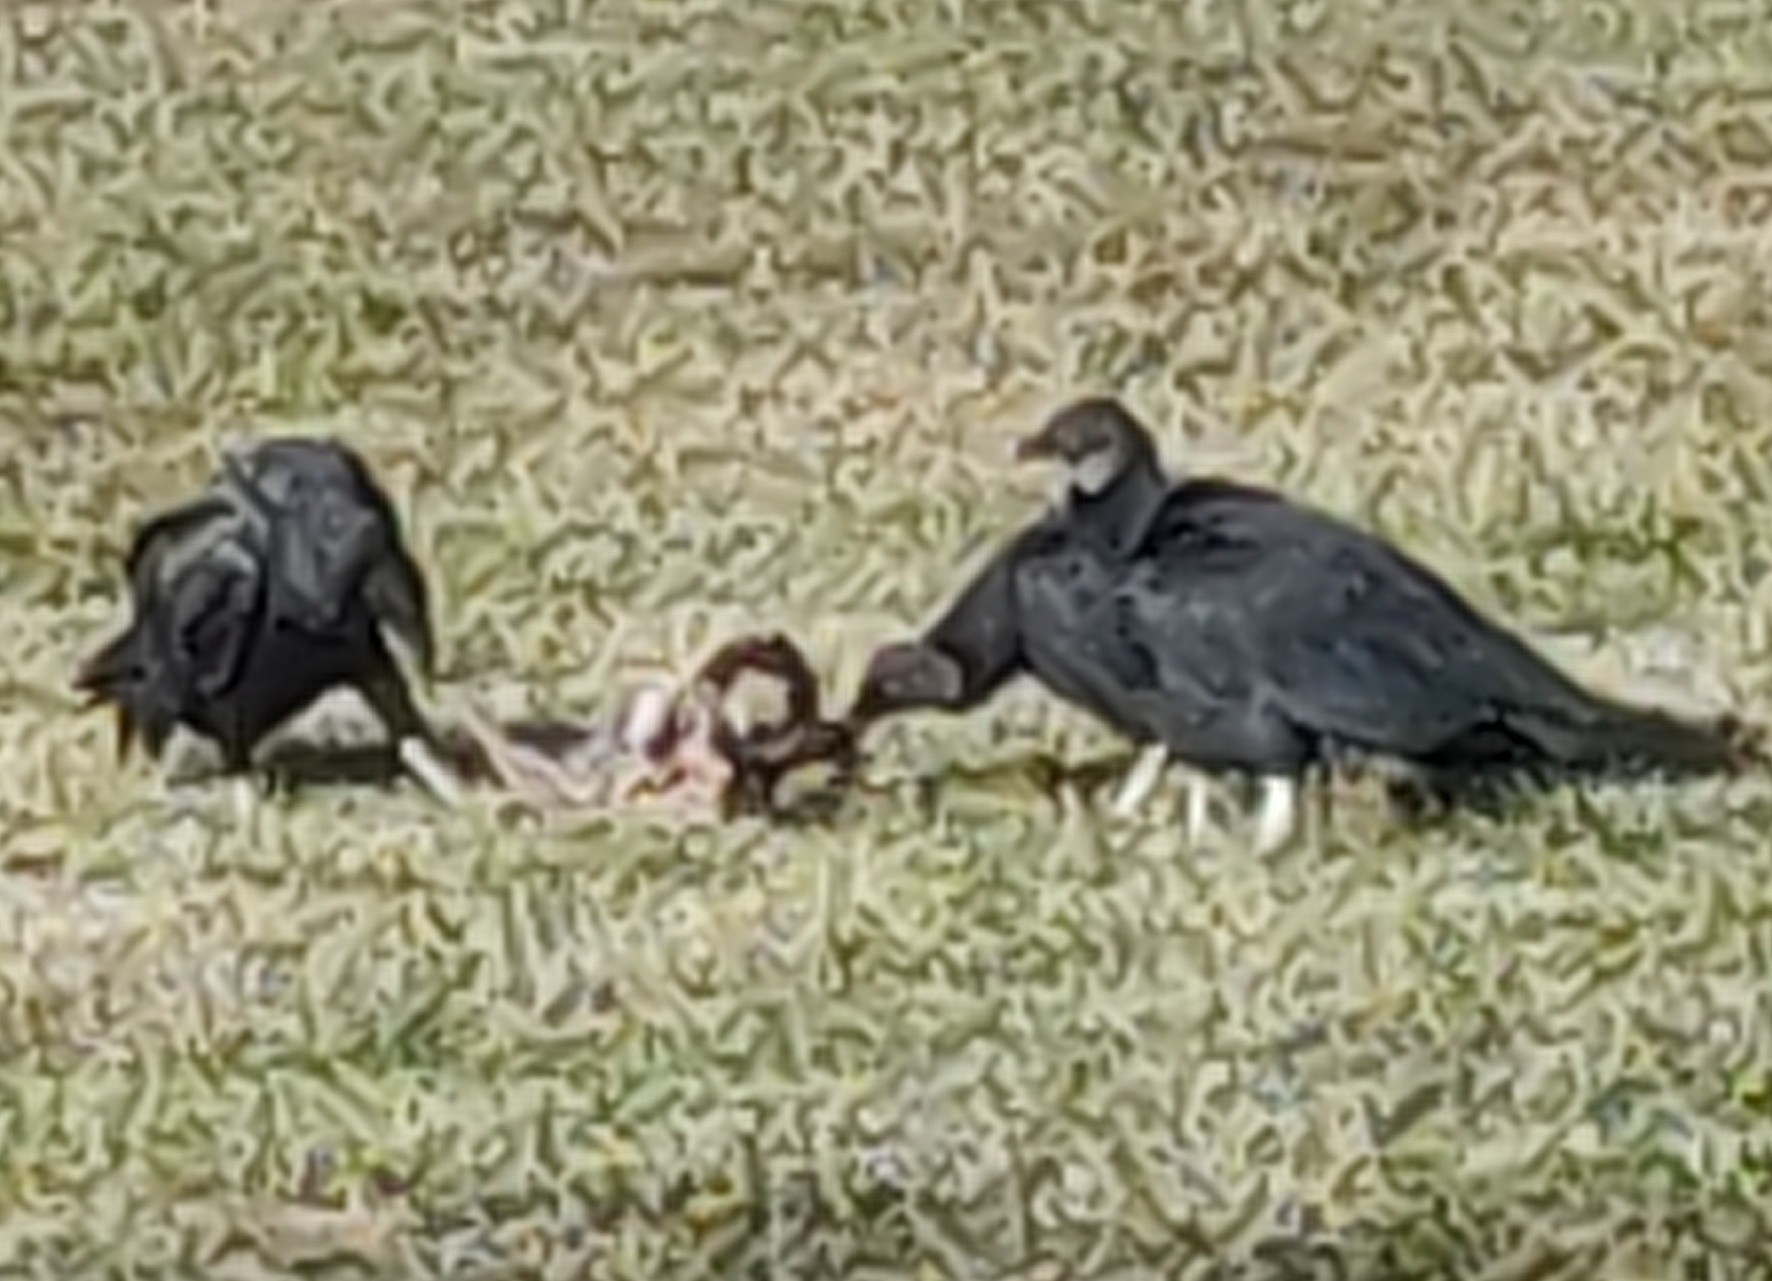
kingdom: Animalia
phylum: Chordata
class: Aves
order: Accipitriformes
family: Cathartidae
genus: Coragyps
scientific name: Coragyps atratus
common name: Black vulture
